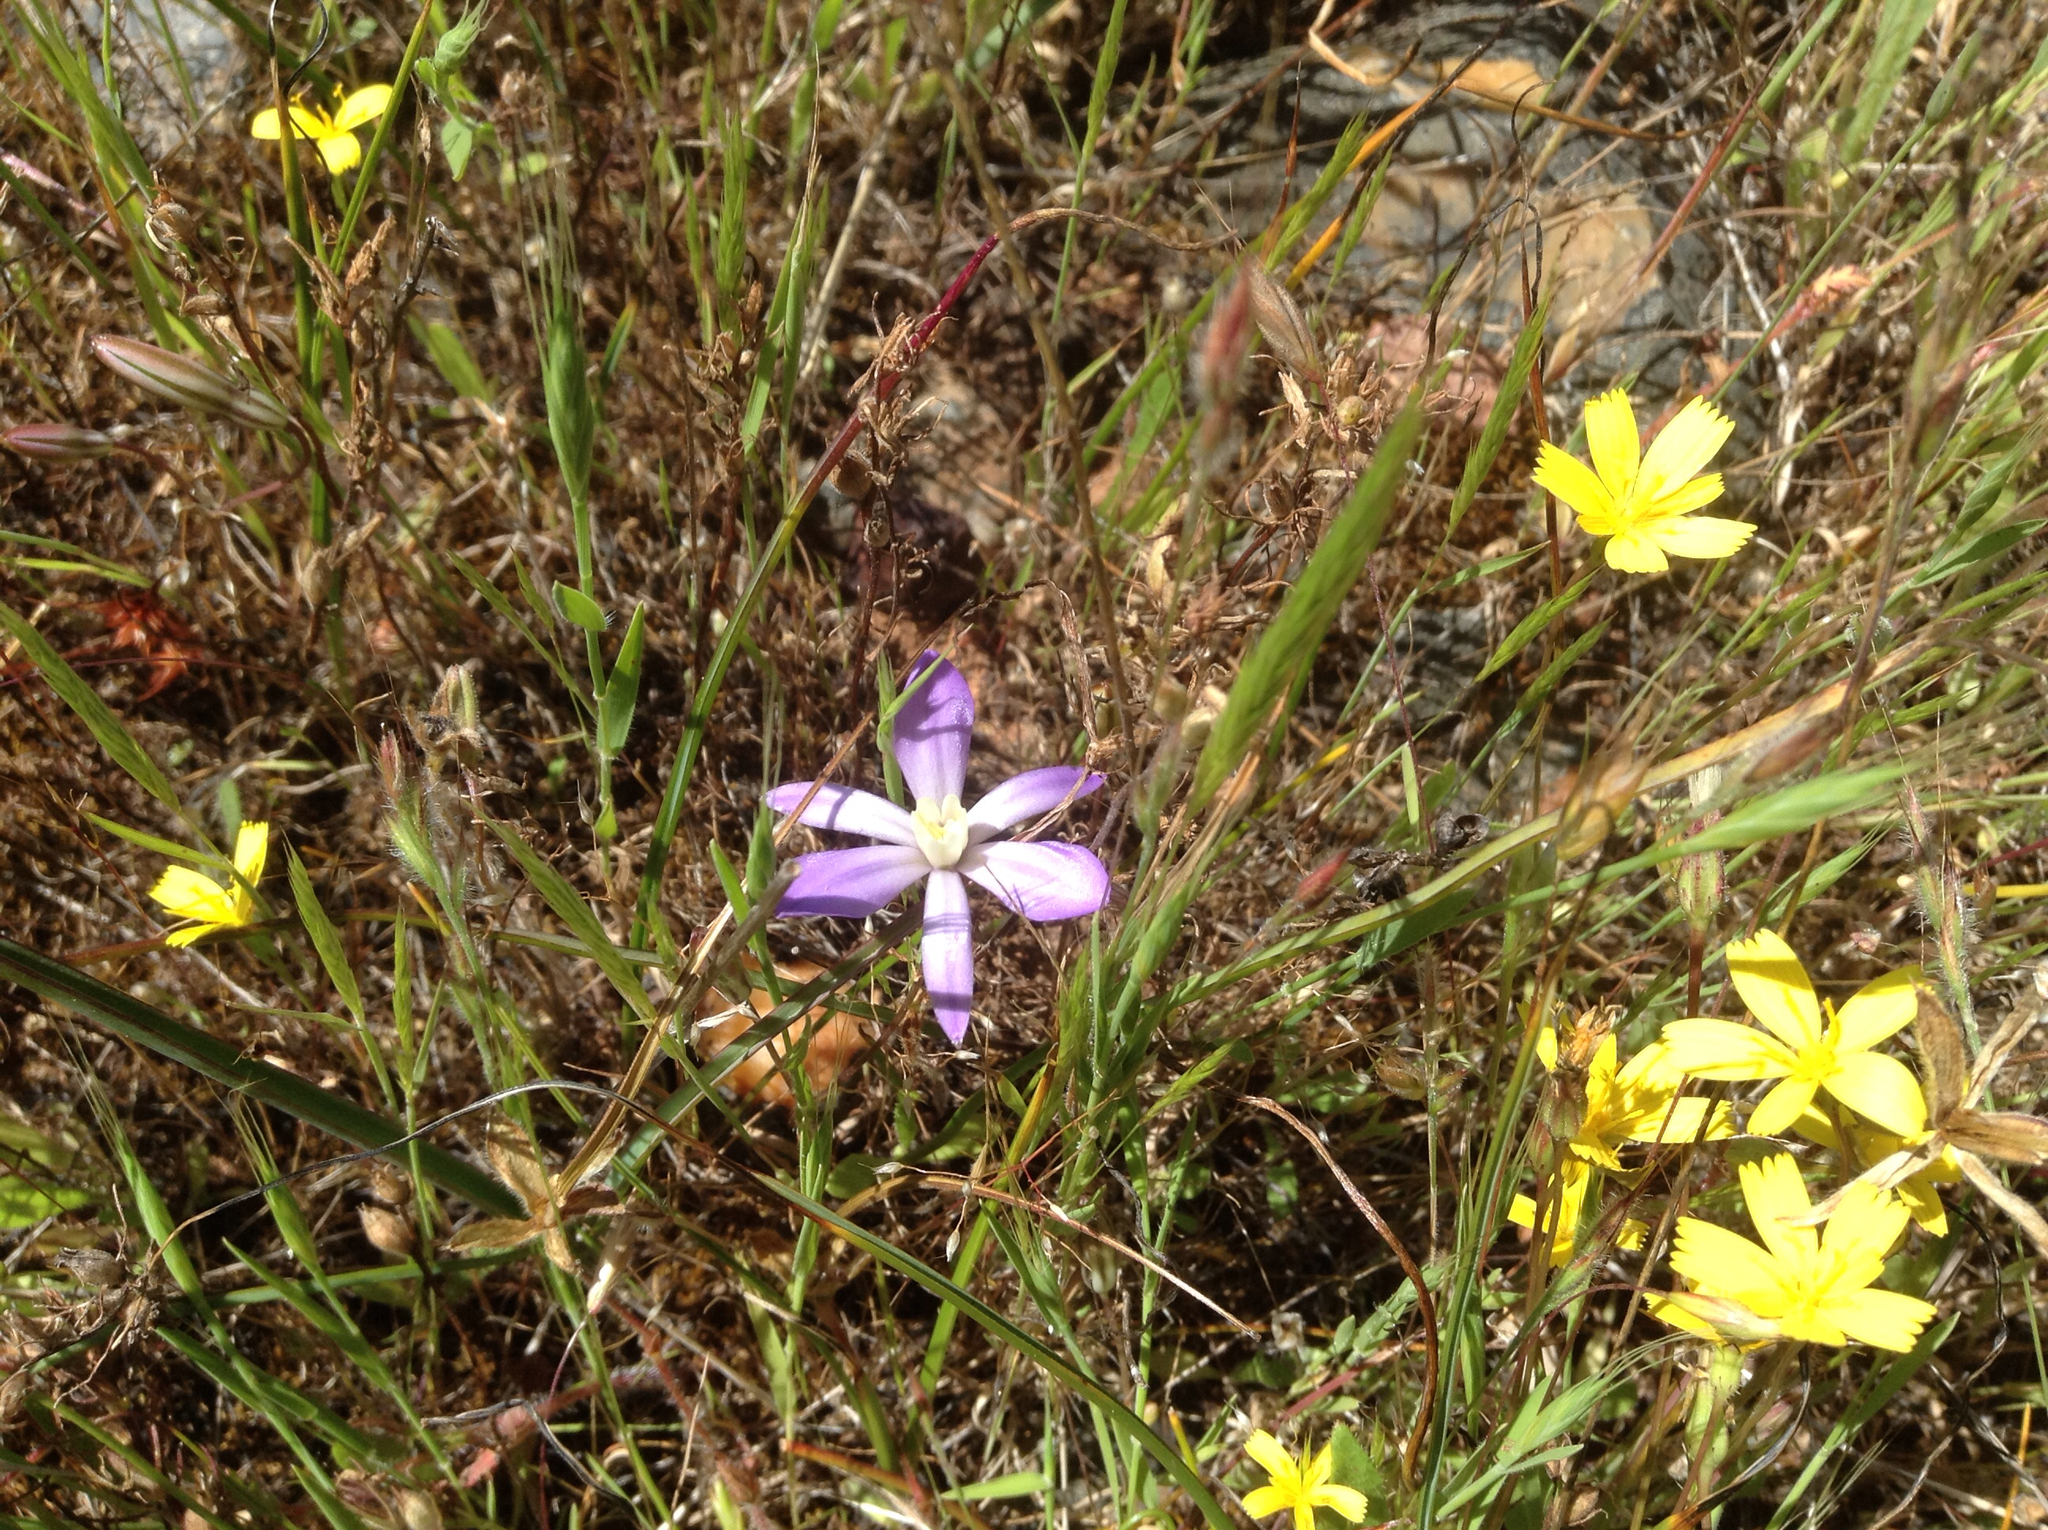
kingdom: Plantae
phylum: Tracheophyta
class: Liliopsida
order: Asparagales
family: Asparagaceae
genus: Brodiaea
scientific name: Brodiaea nana
